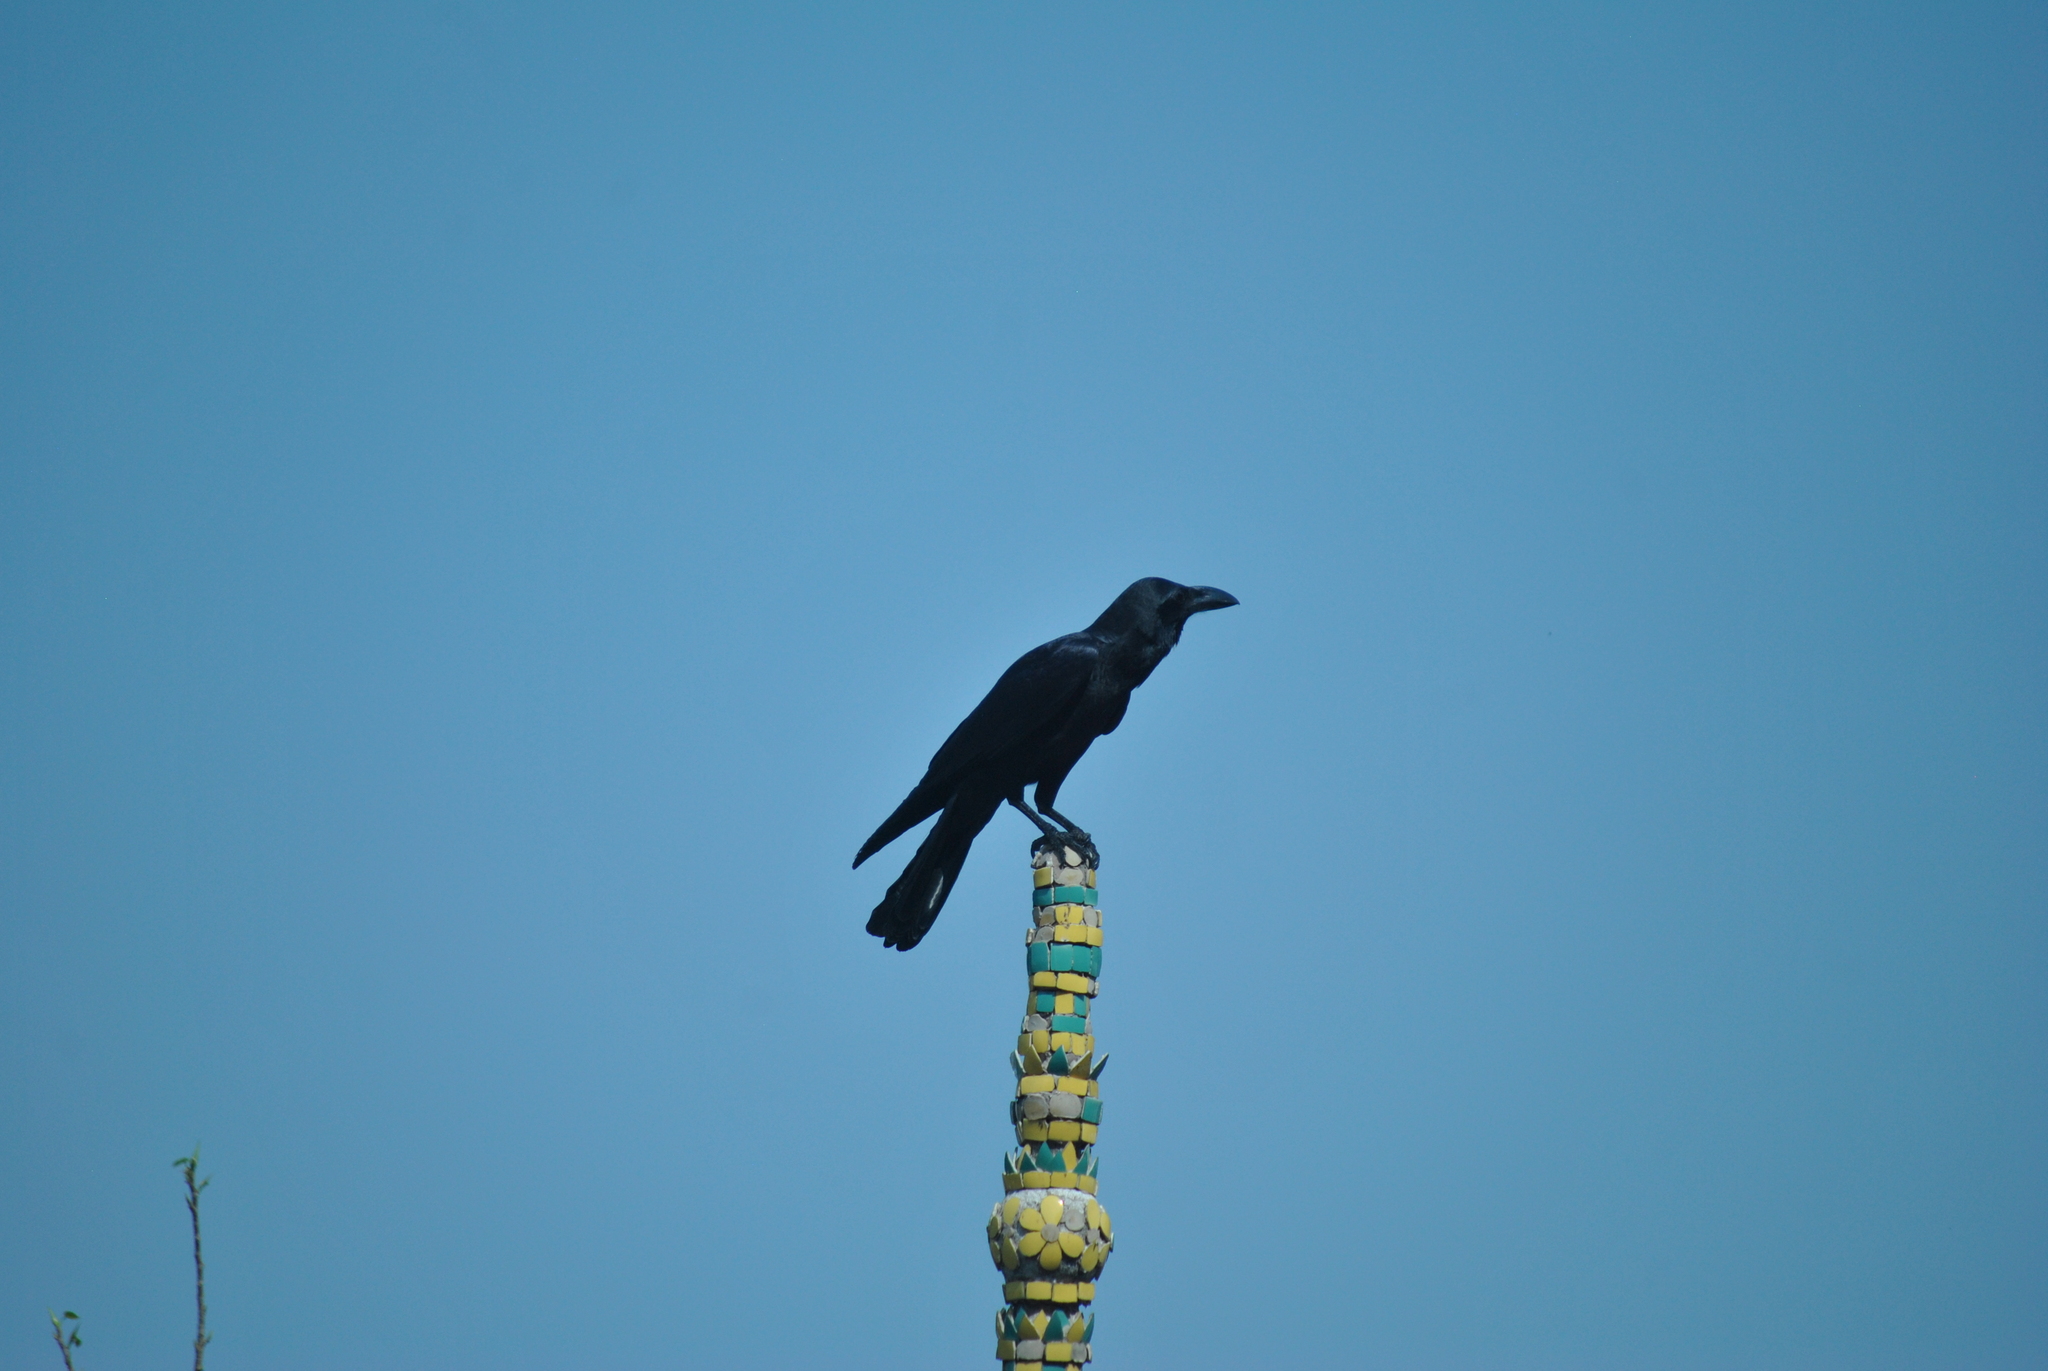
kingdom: Animalia
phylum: Chordata
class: Aves
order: Passeriformes
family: Corvidae
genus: Corvus
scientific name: Corvus macrorhynchos
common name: Large-billed crow
